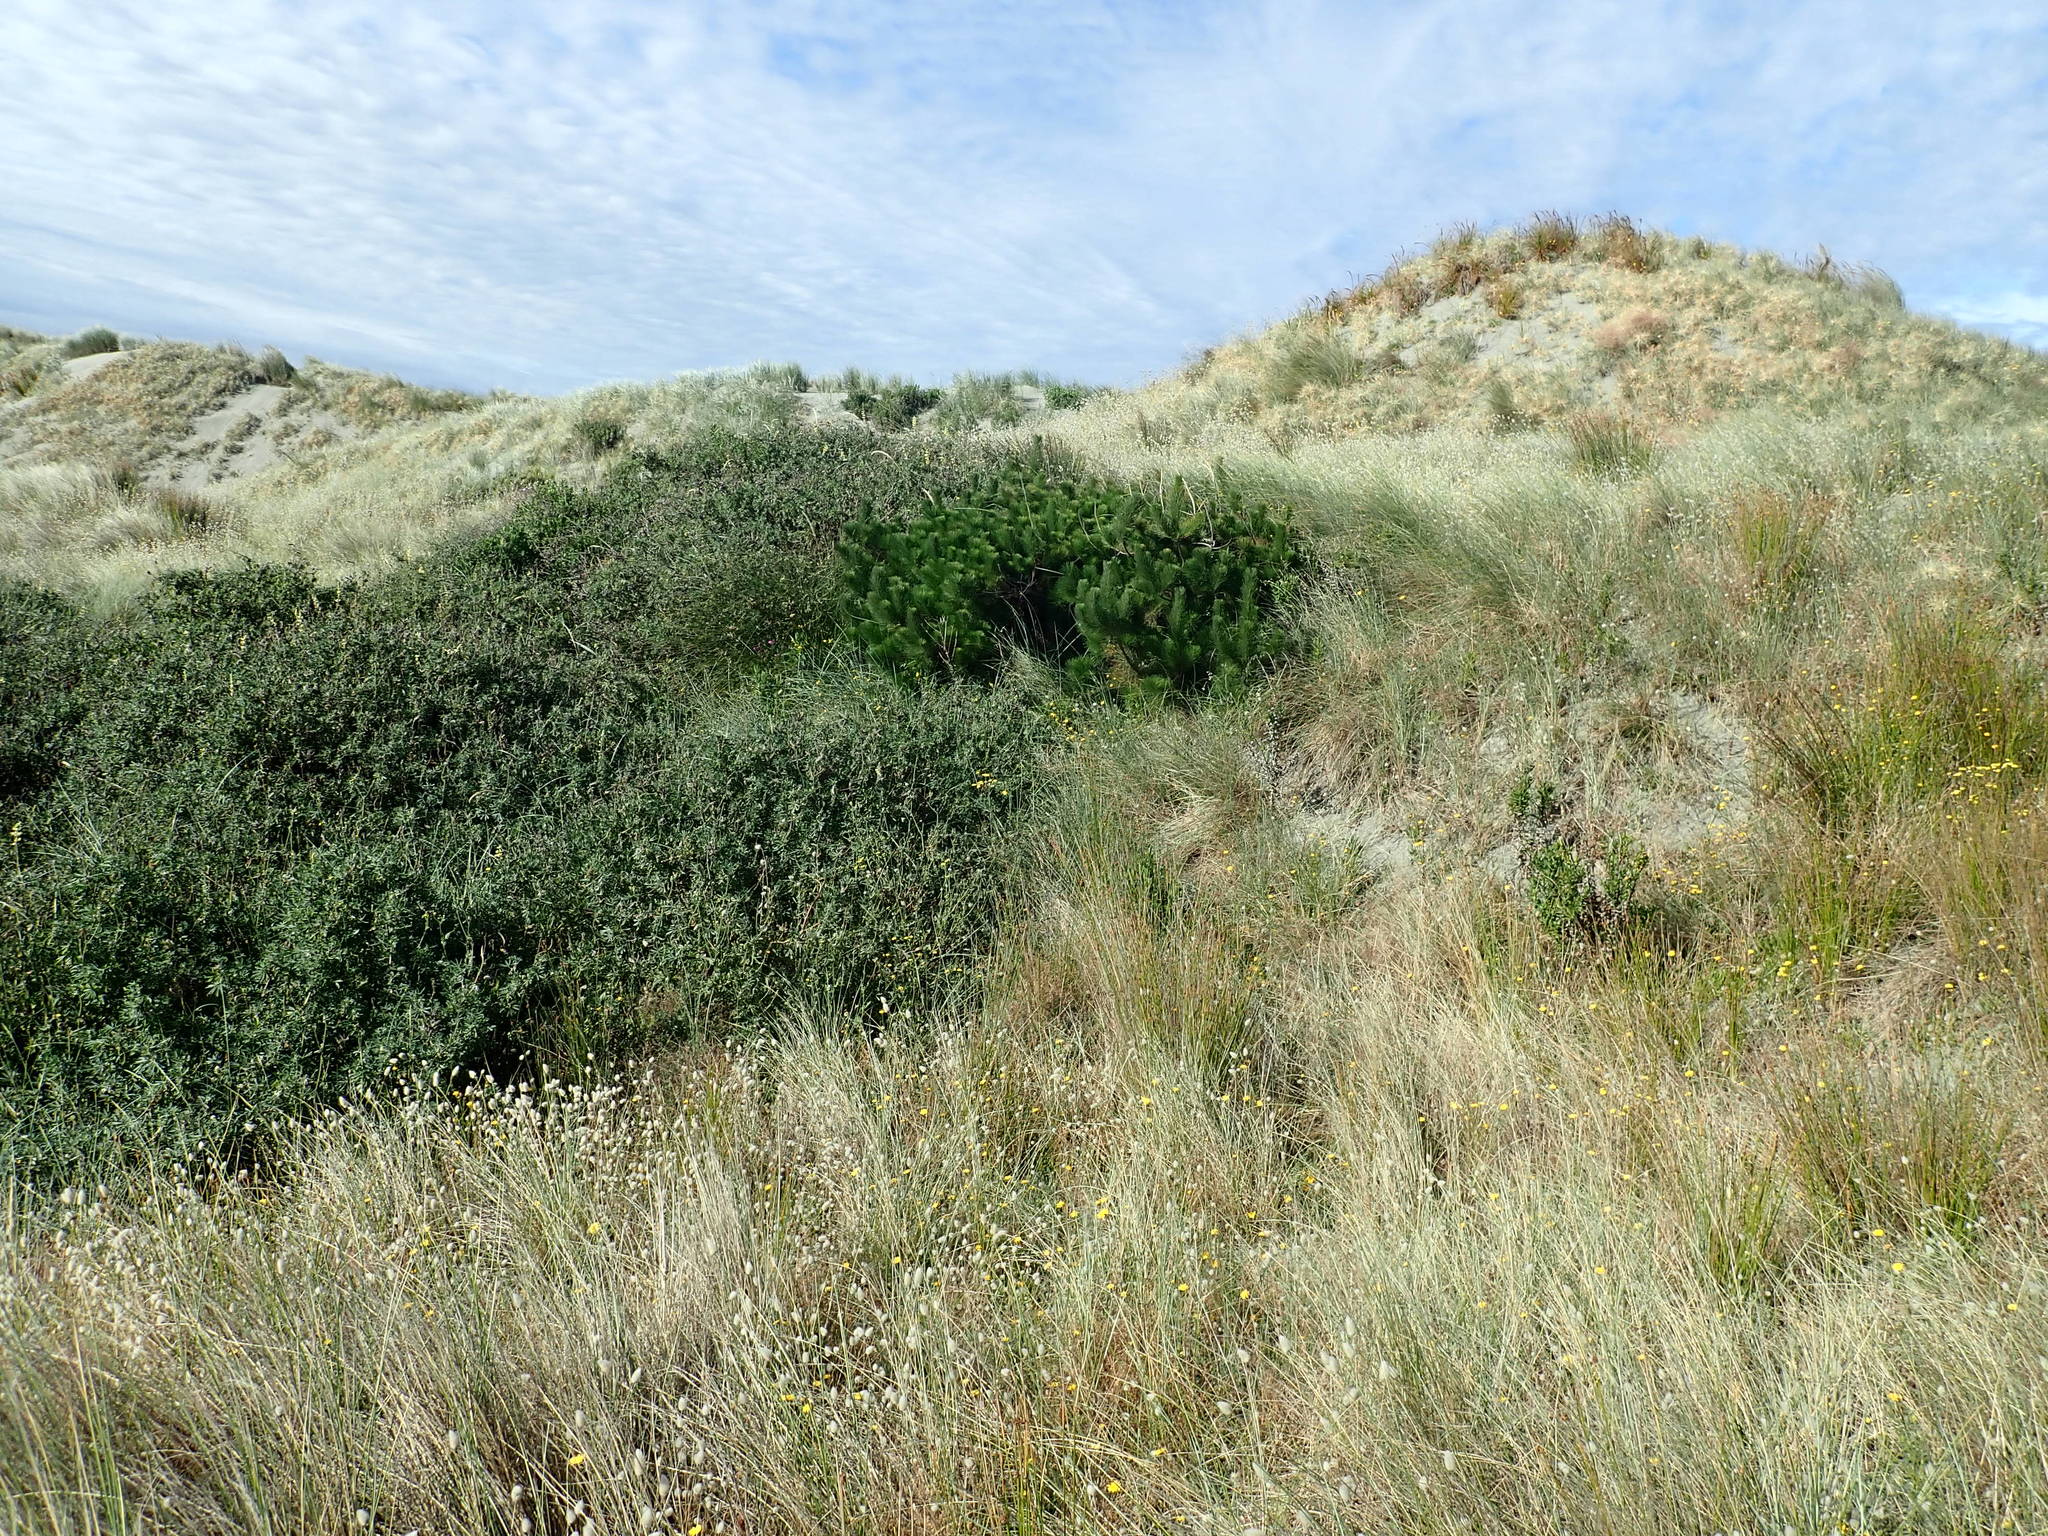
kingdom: Plantae
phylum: Tracheophyta
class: Pinopsida
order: Pinales
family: Pinaceae
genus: Pinus
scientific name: Pinus radiata
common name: Monterey pine
